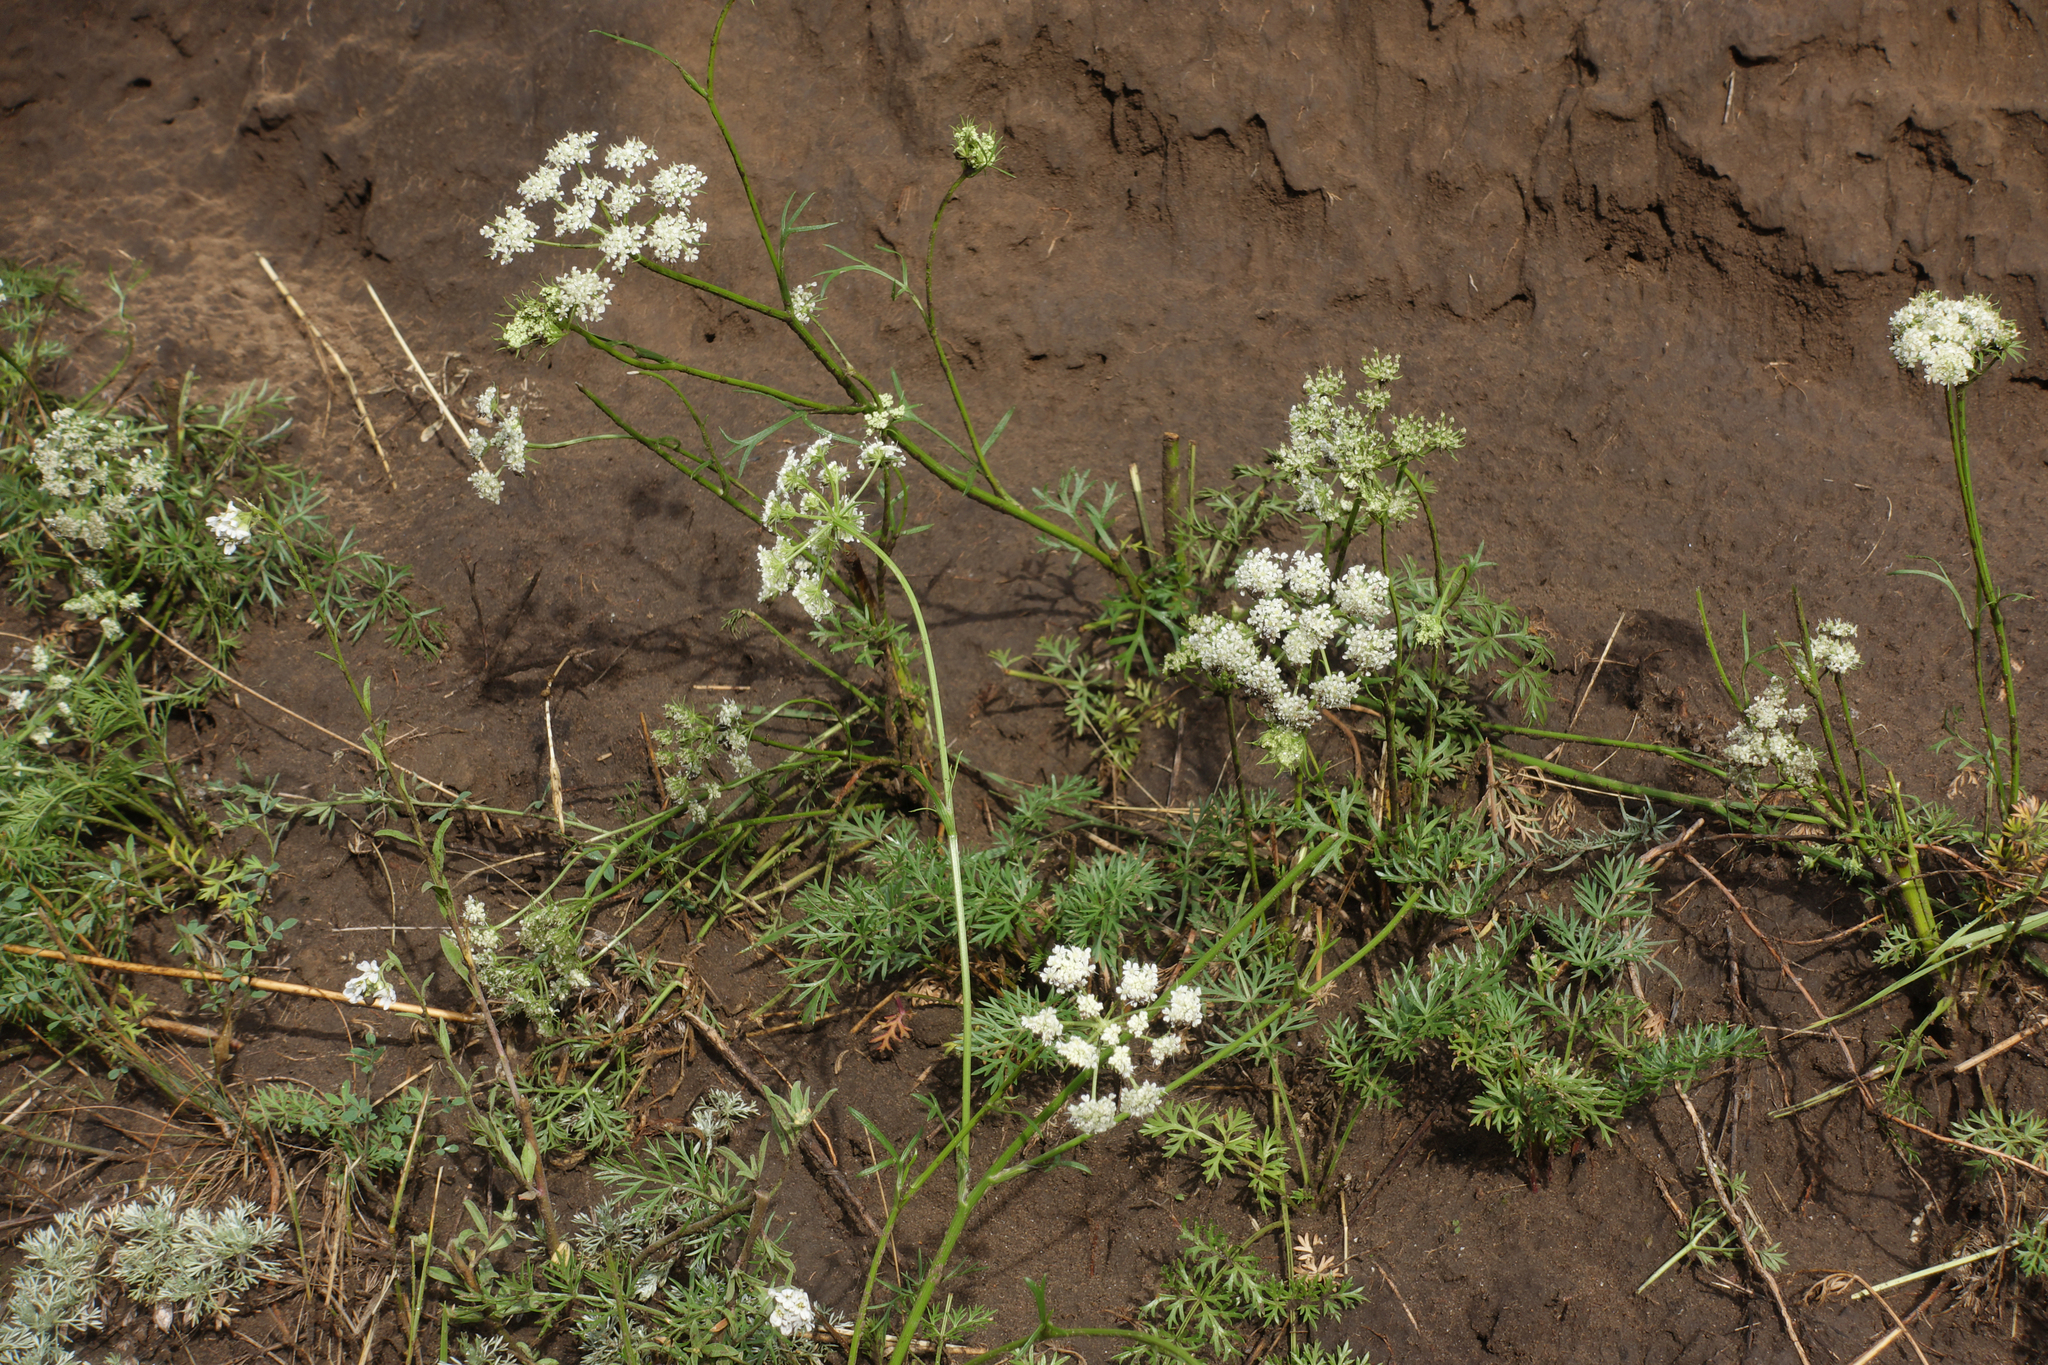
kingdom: Plantae
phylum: Tracheophyta
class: Magnoliopsida
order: Apiales
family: Apiaceae
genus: Kitagawia
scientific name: Kitagawia baicalensis
